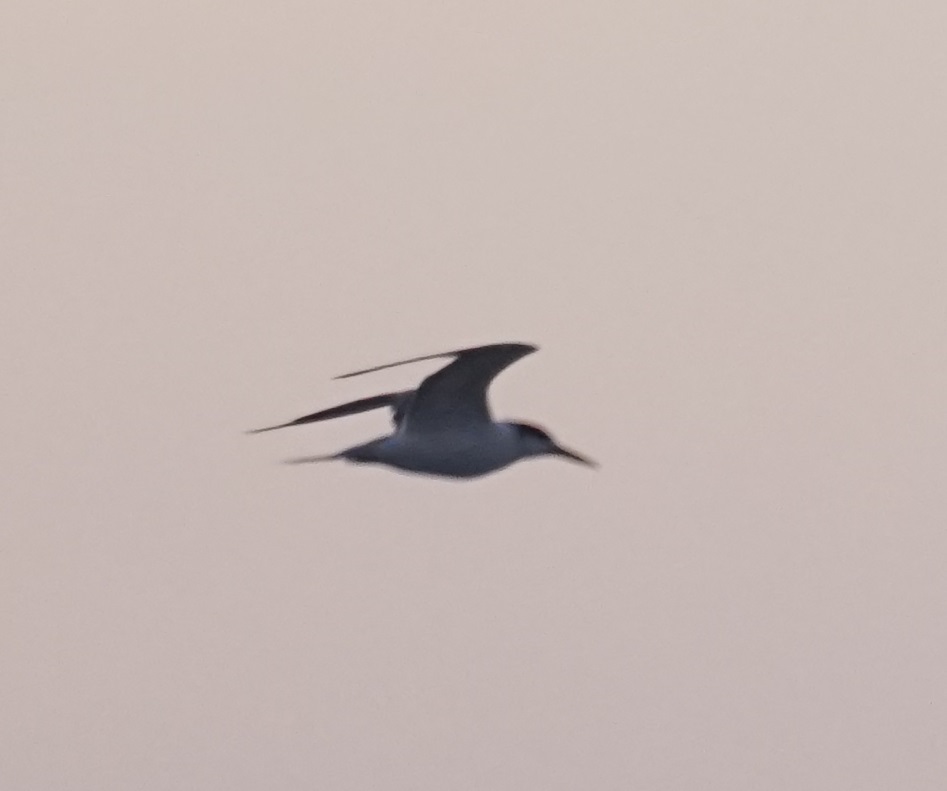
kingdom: Animalia
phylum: Chordata
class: Aves
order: Charadriiformes
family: Laridae
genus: Thalasseus
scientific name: Thalasseus bergii
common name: Greater crested tern
